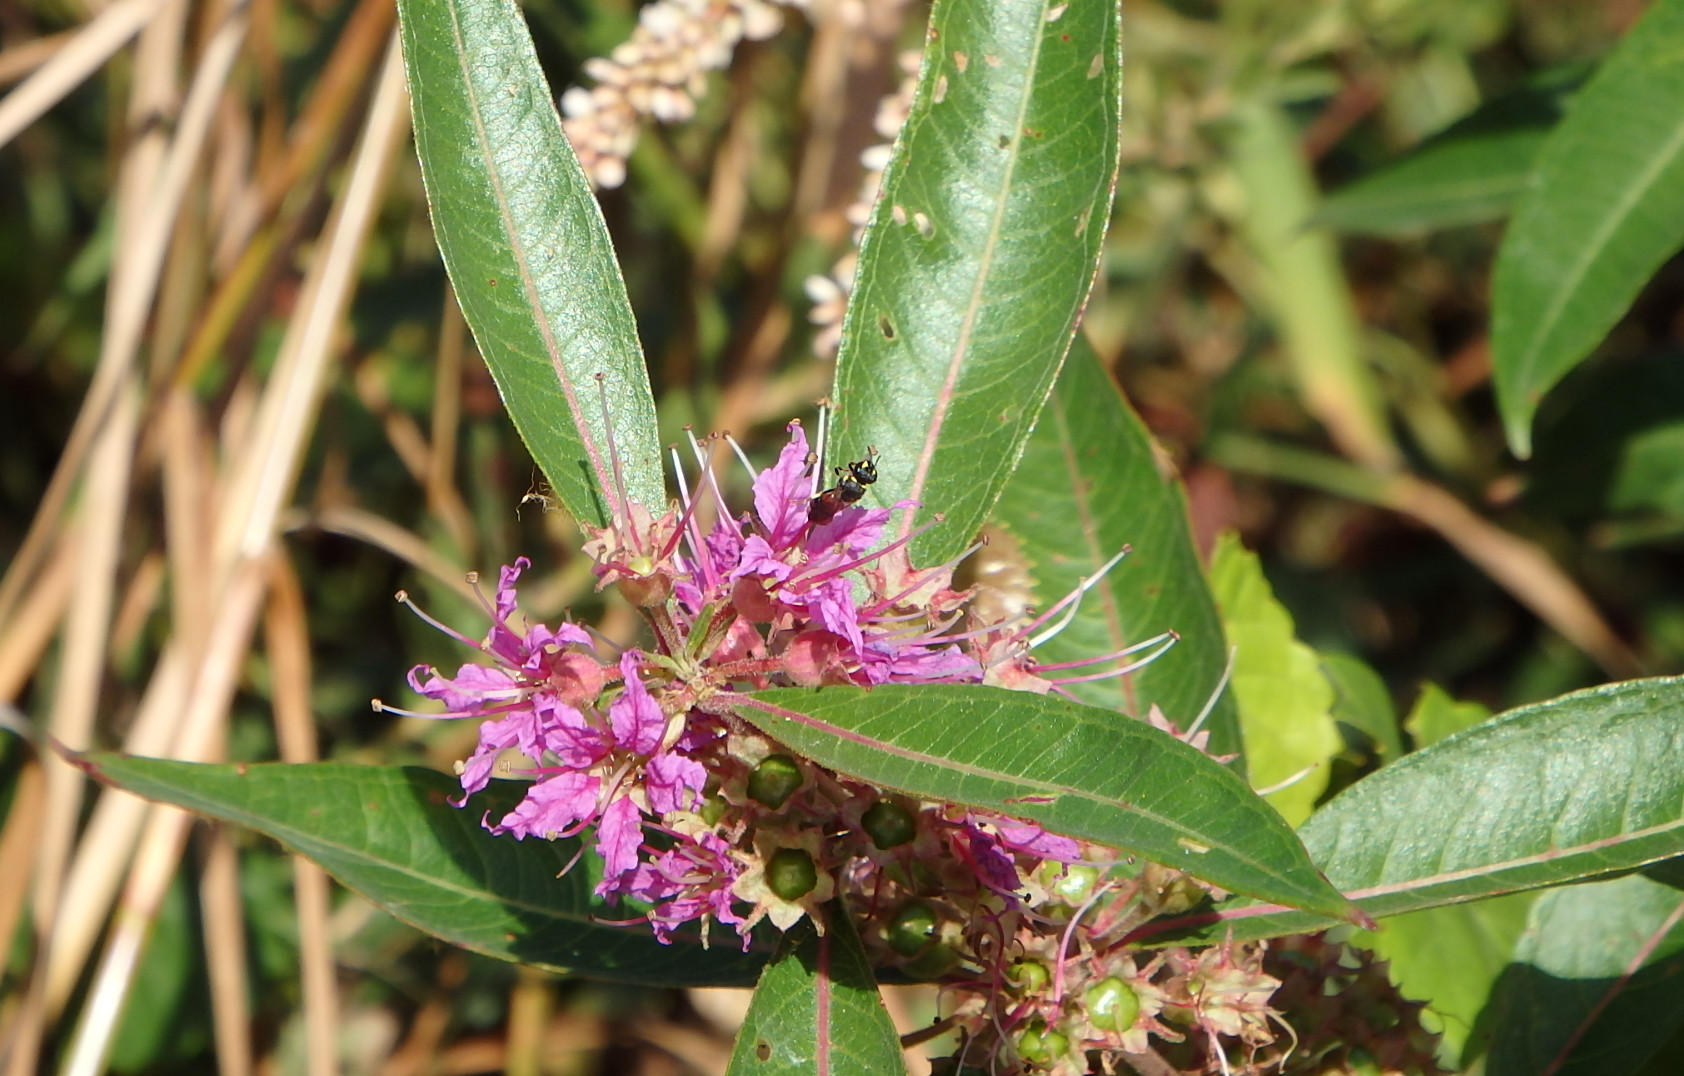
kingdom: Animalia
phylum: Arthropoda
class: Insecta
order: Hymenoptera
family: Colletidae
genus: Hylaeus
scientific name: Hylaeus ornatus
